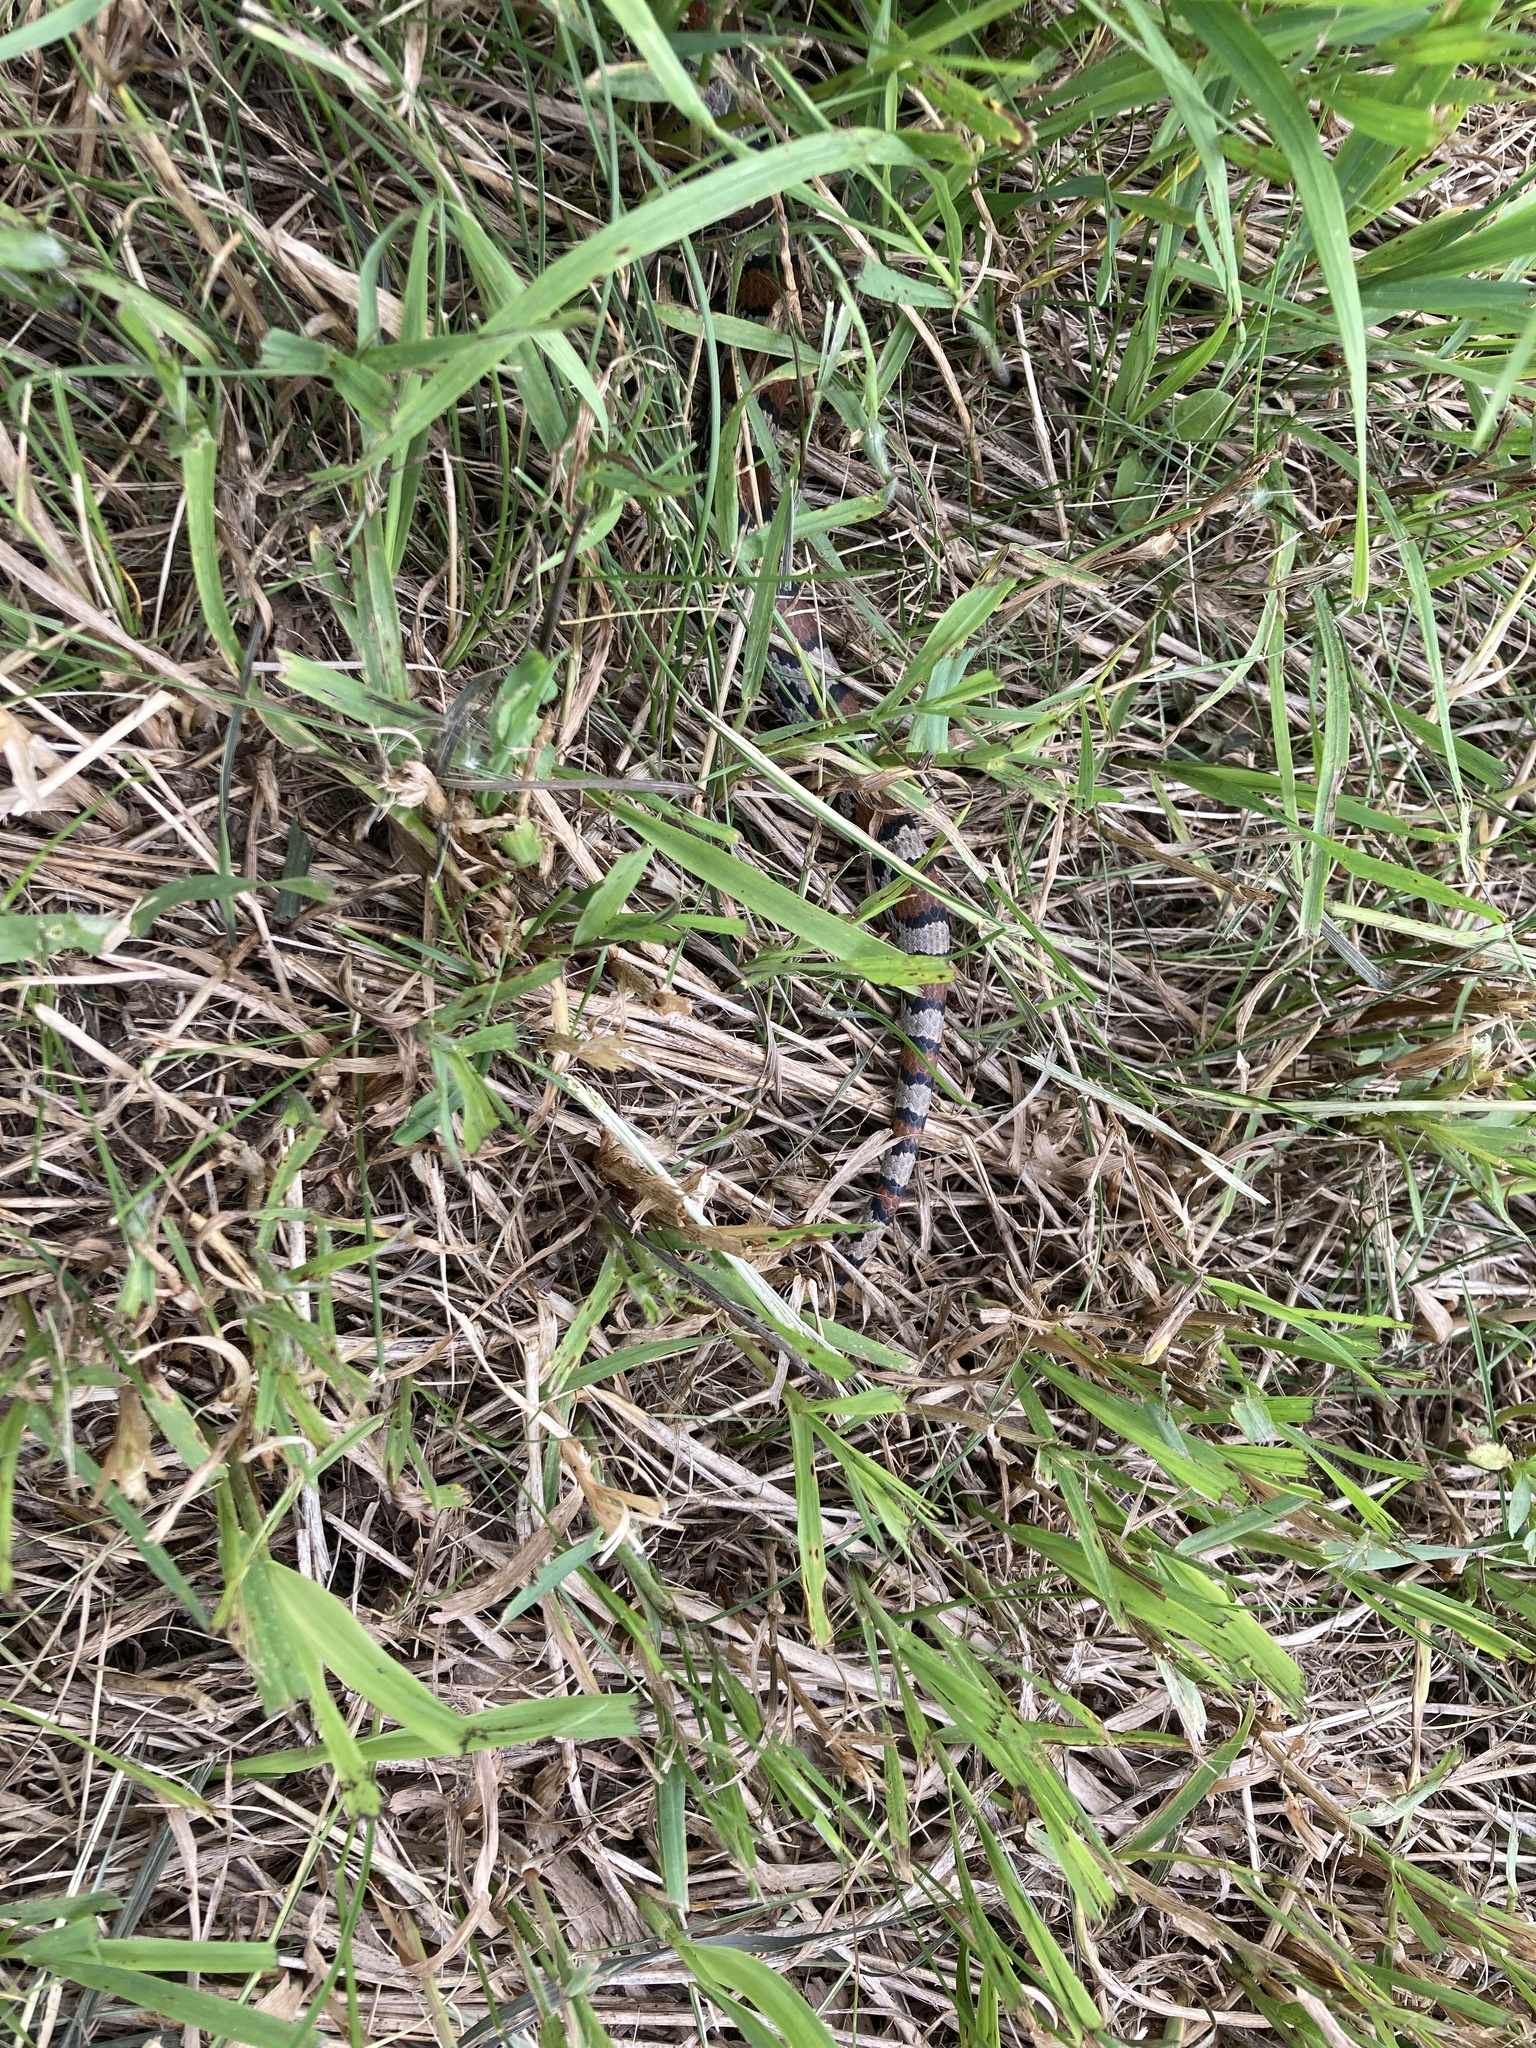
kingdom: Animalia
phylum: Chordata
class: Squamata
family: Colubridae
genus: Lampropeltis
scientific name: Lampropeltis triangulum
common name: Eastern milksnake
